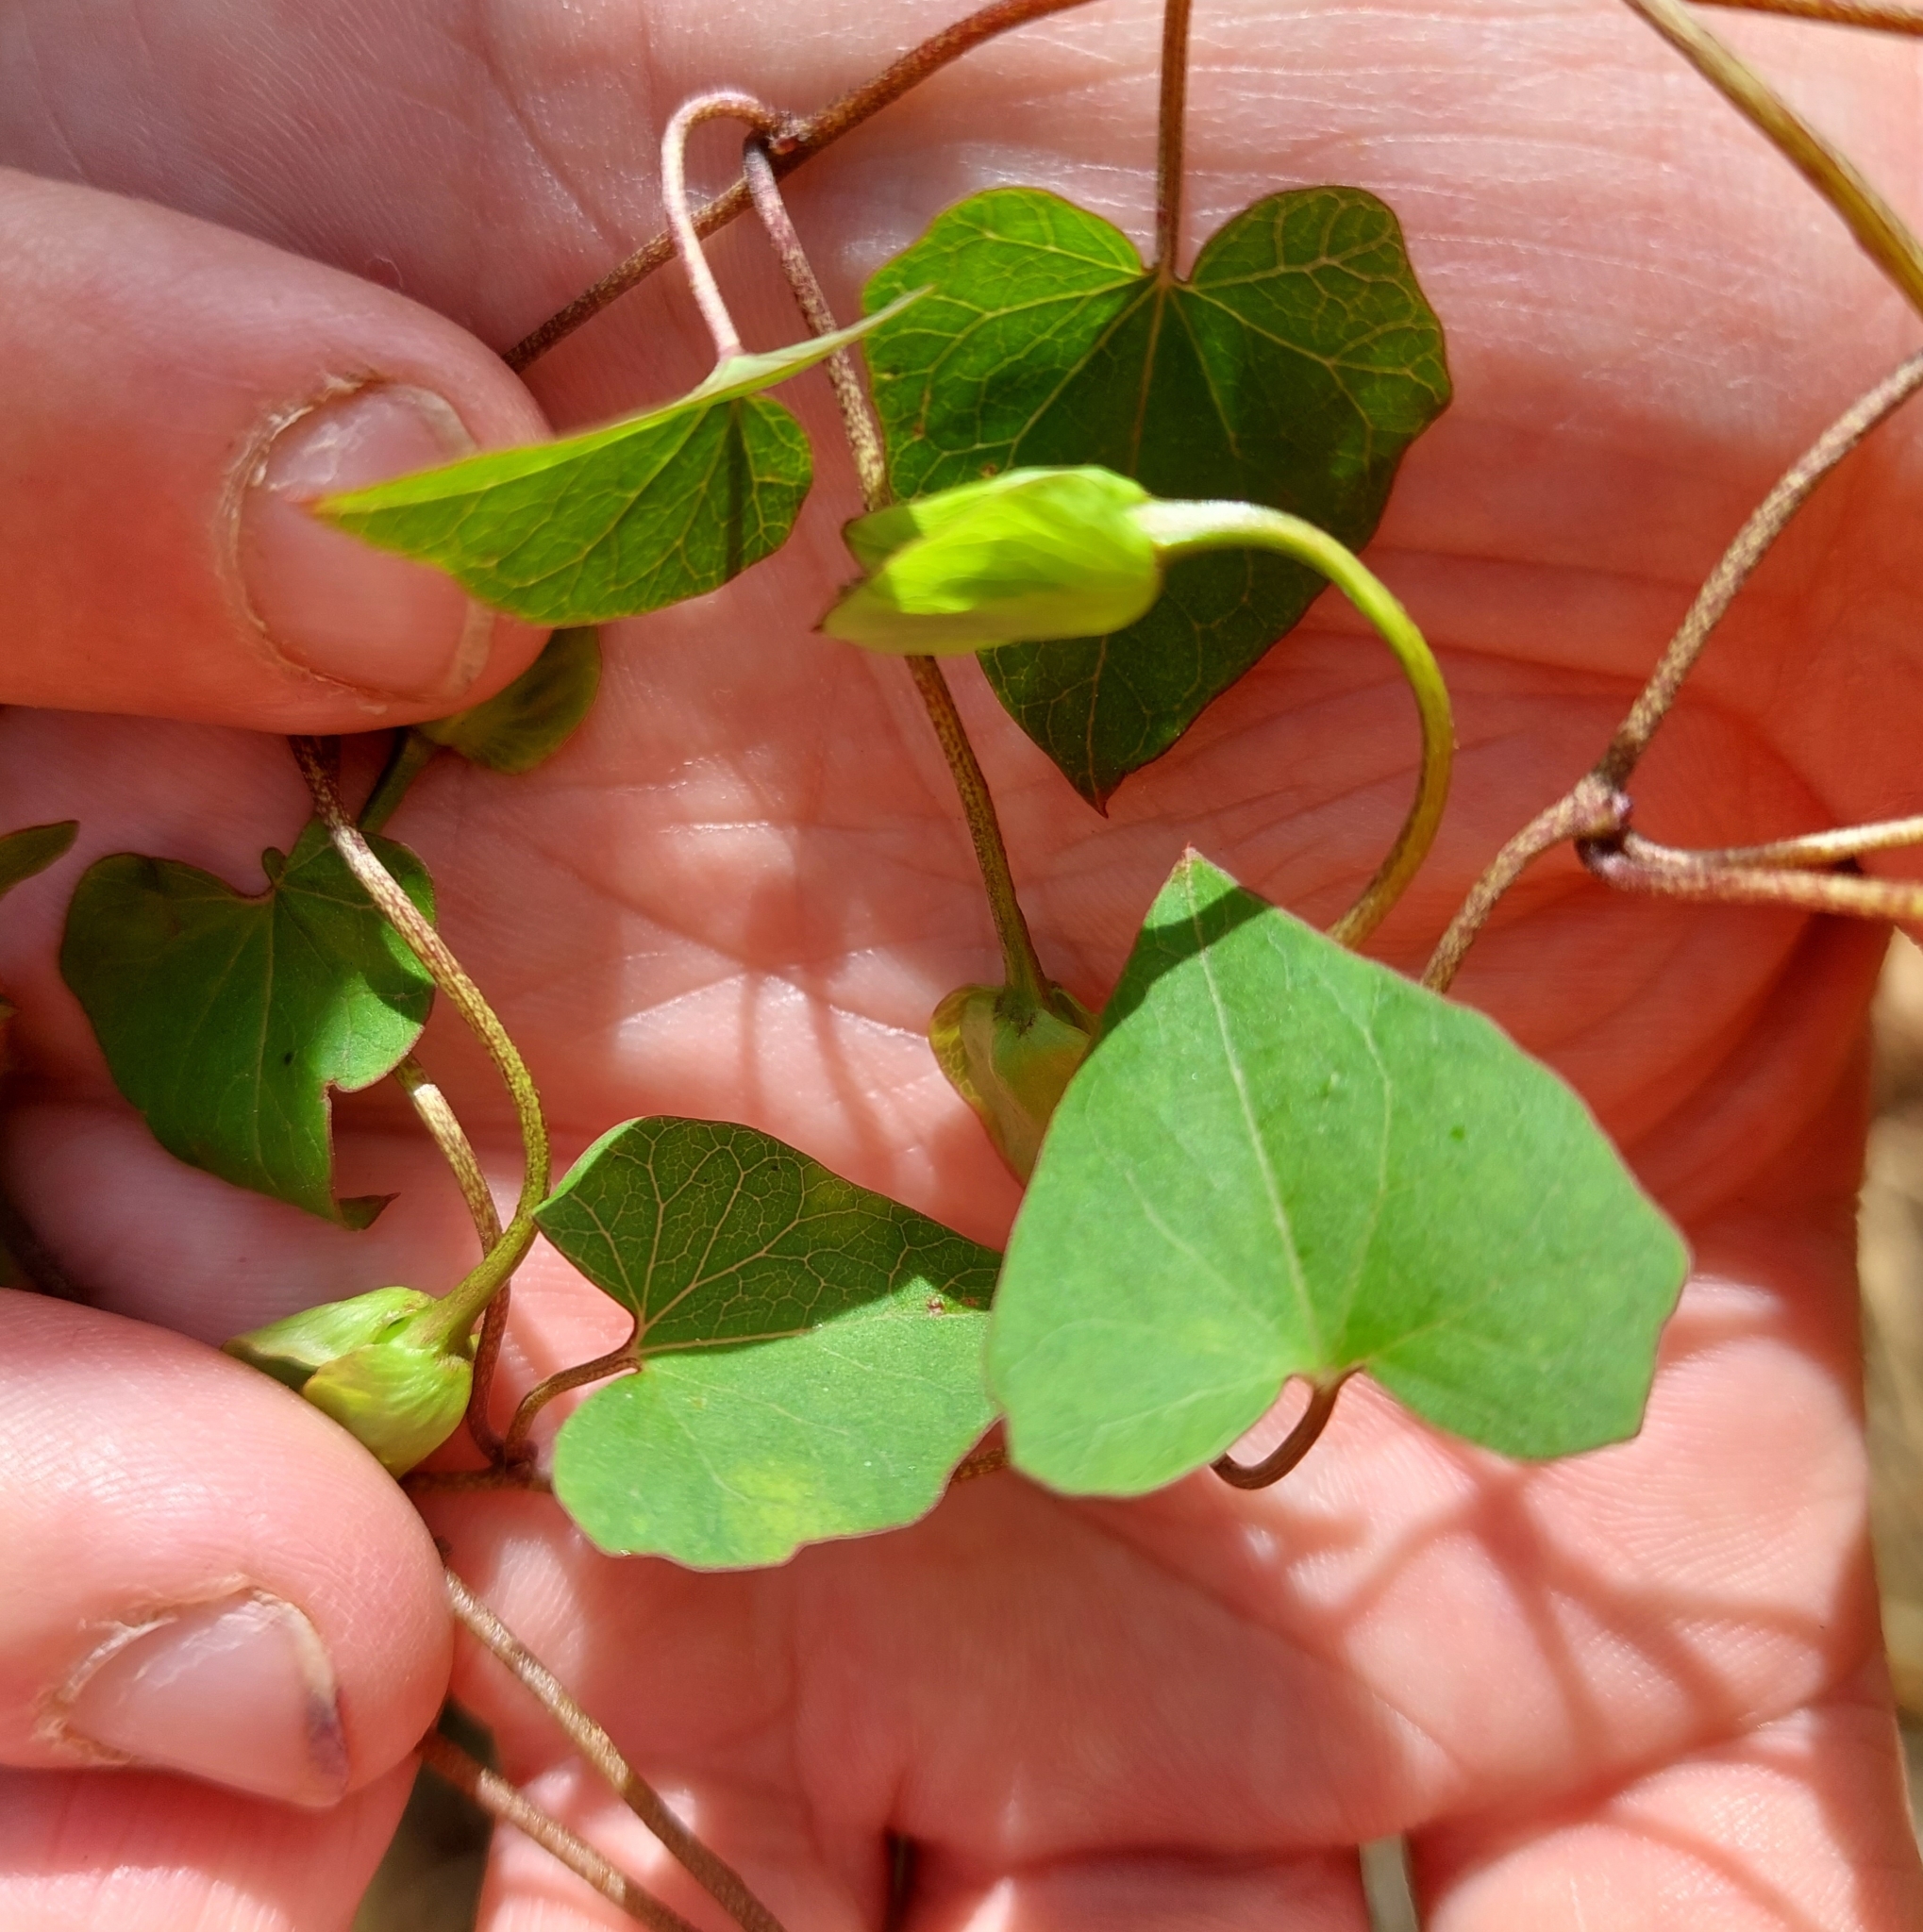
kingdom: Plantae
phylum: Tracheophyta
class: Magnoliopsida
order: Solanales
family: Convolvulaceae
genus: Calystegia
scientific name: Calystegia tuguriorum
